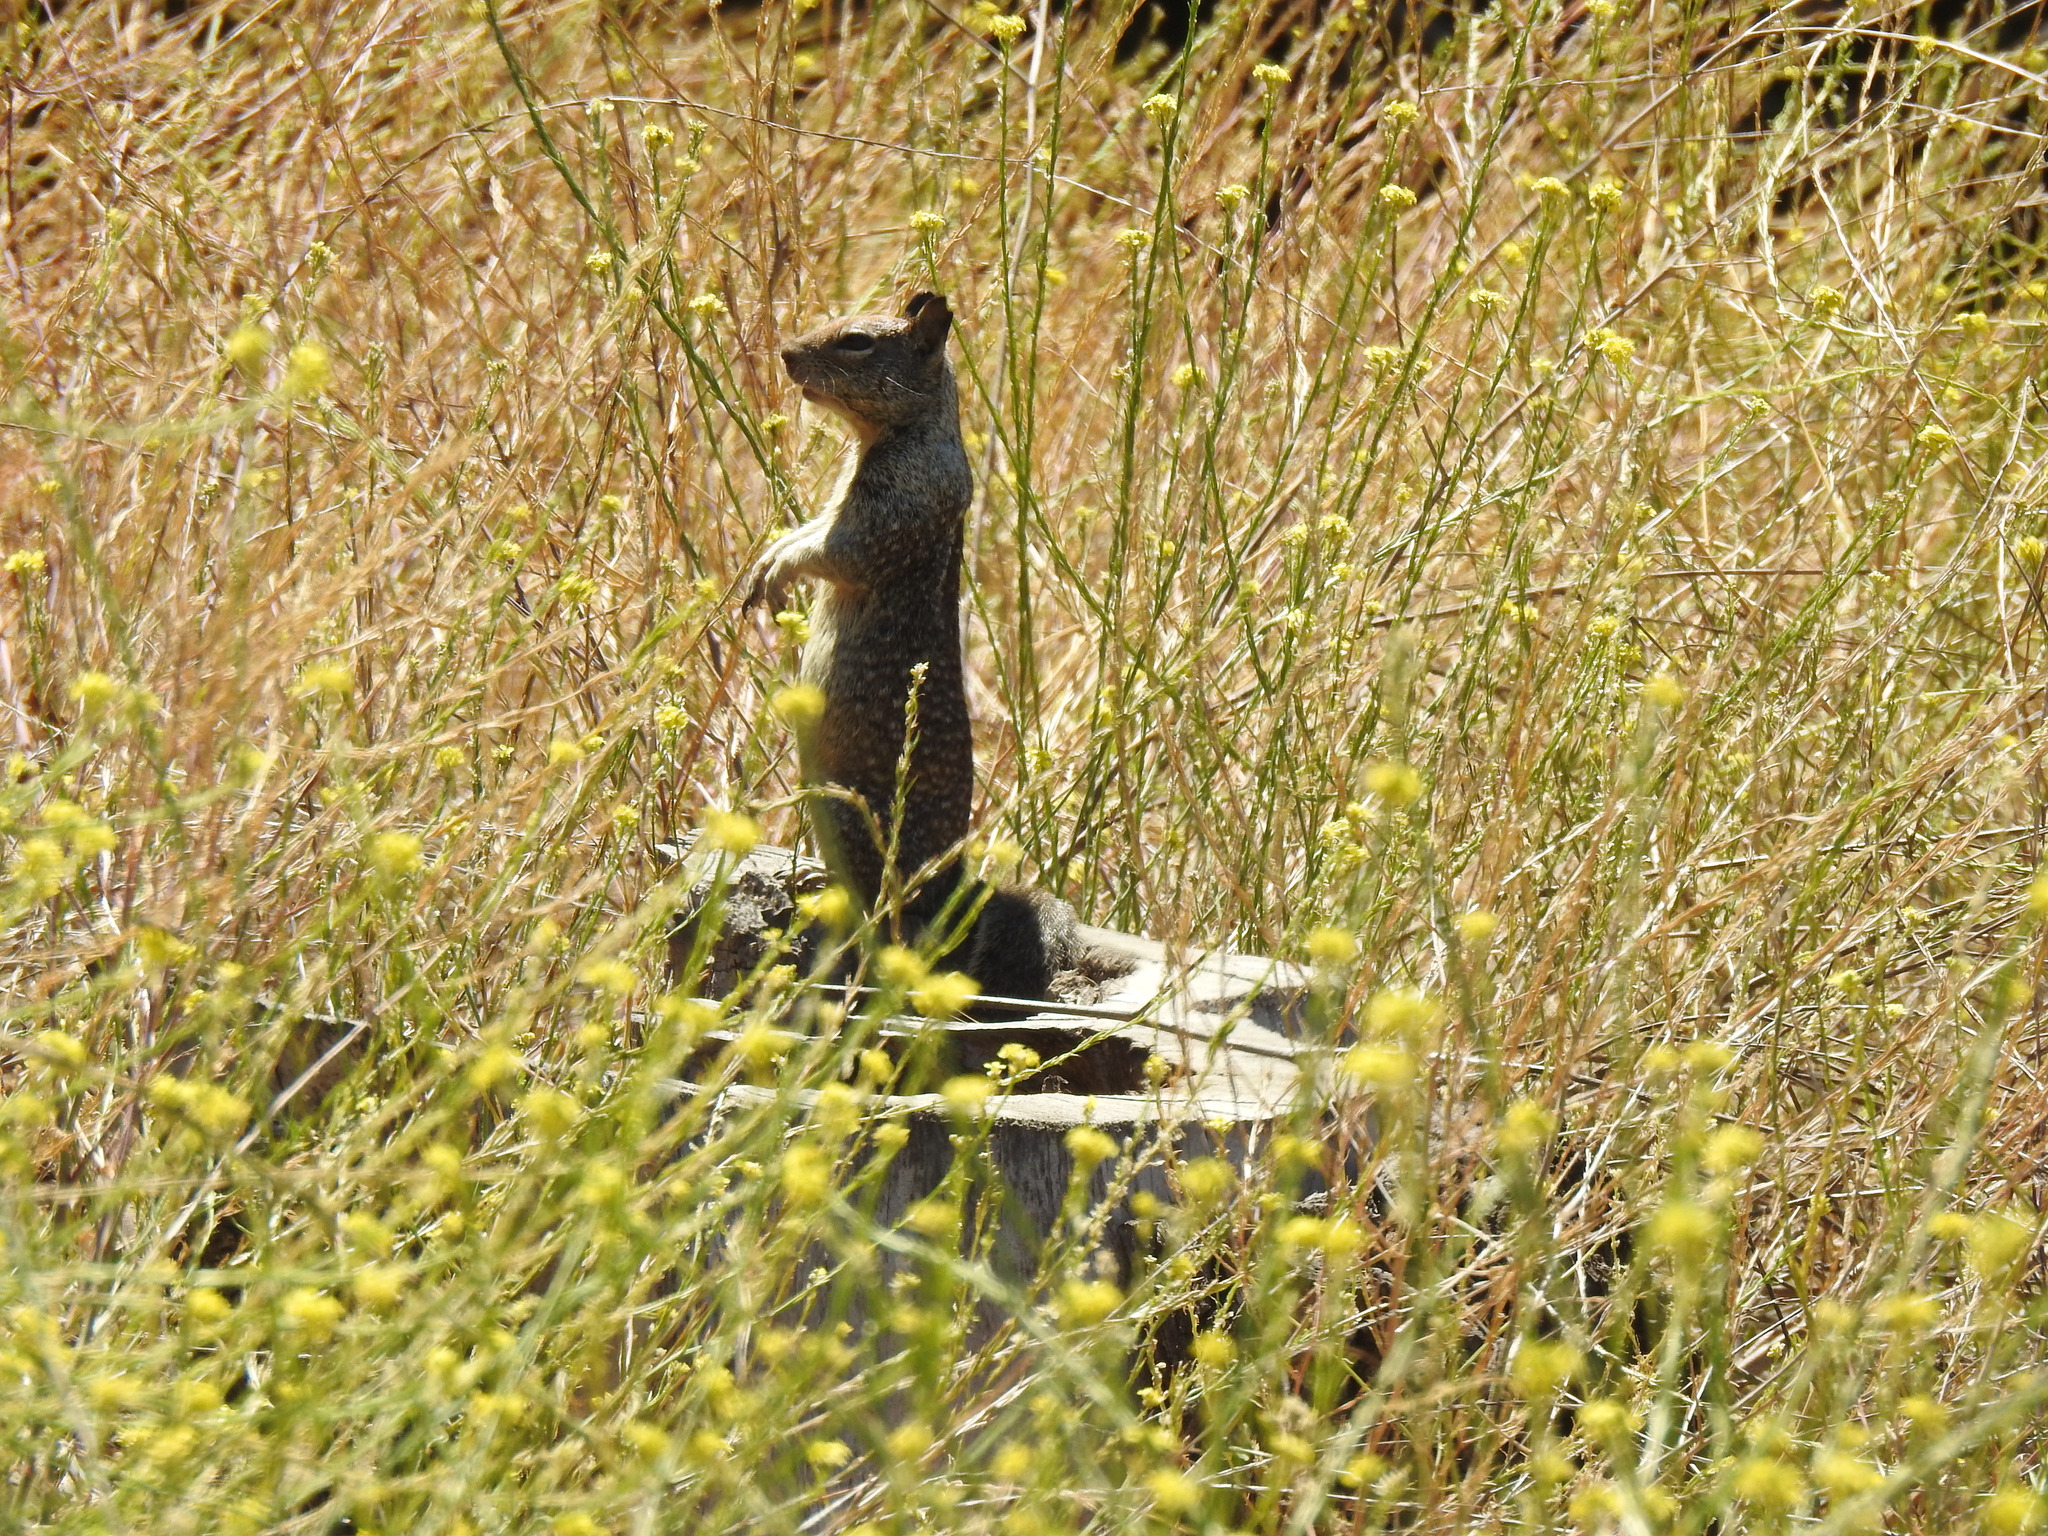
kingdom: Animalia
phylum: Chordata
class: Mammalia
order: Rodentia
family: Sciuridae
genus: Otospermophilus
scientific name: Otospermophilus beecheyi
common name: California ground squirrel
